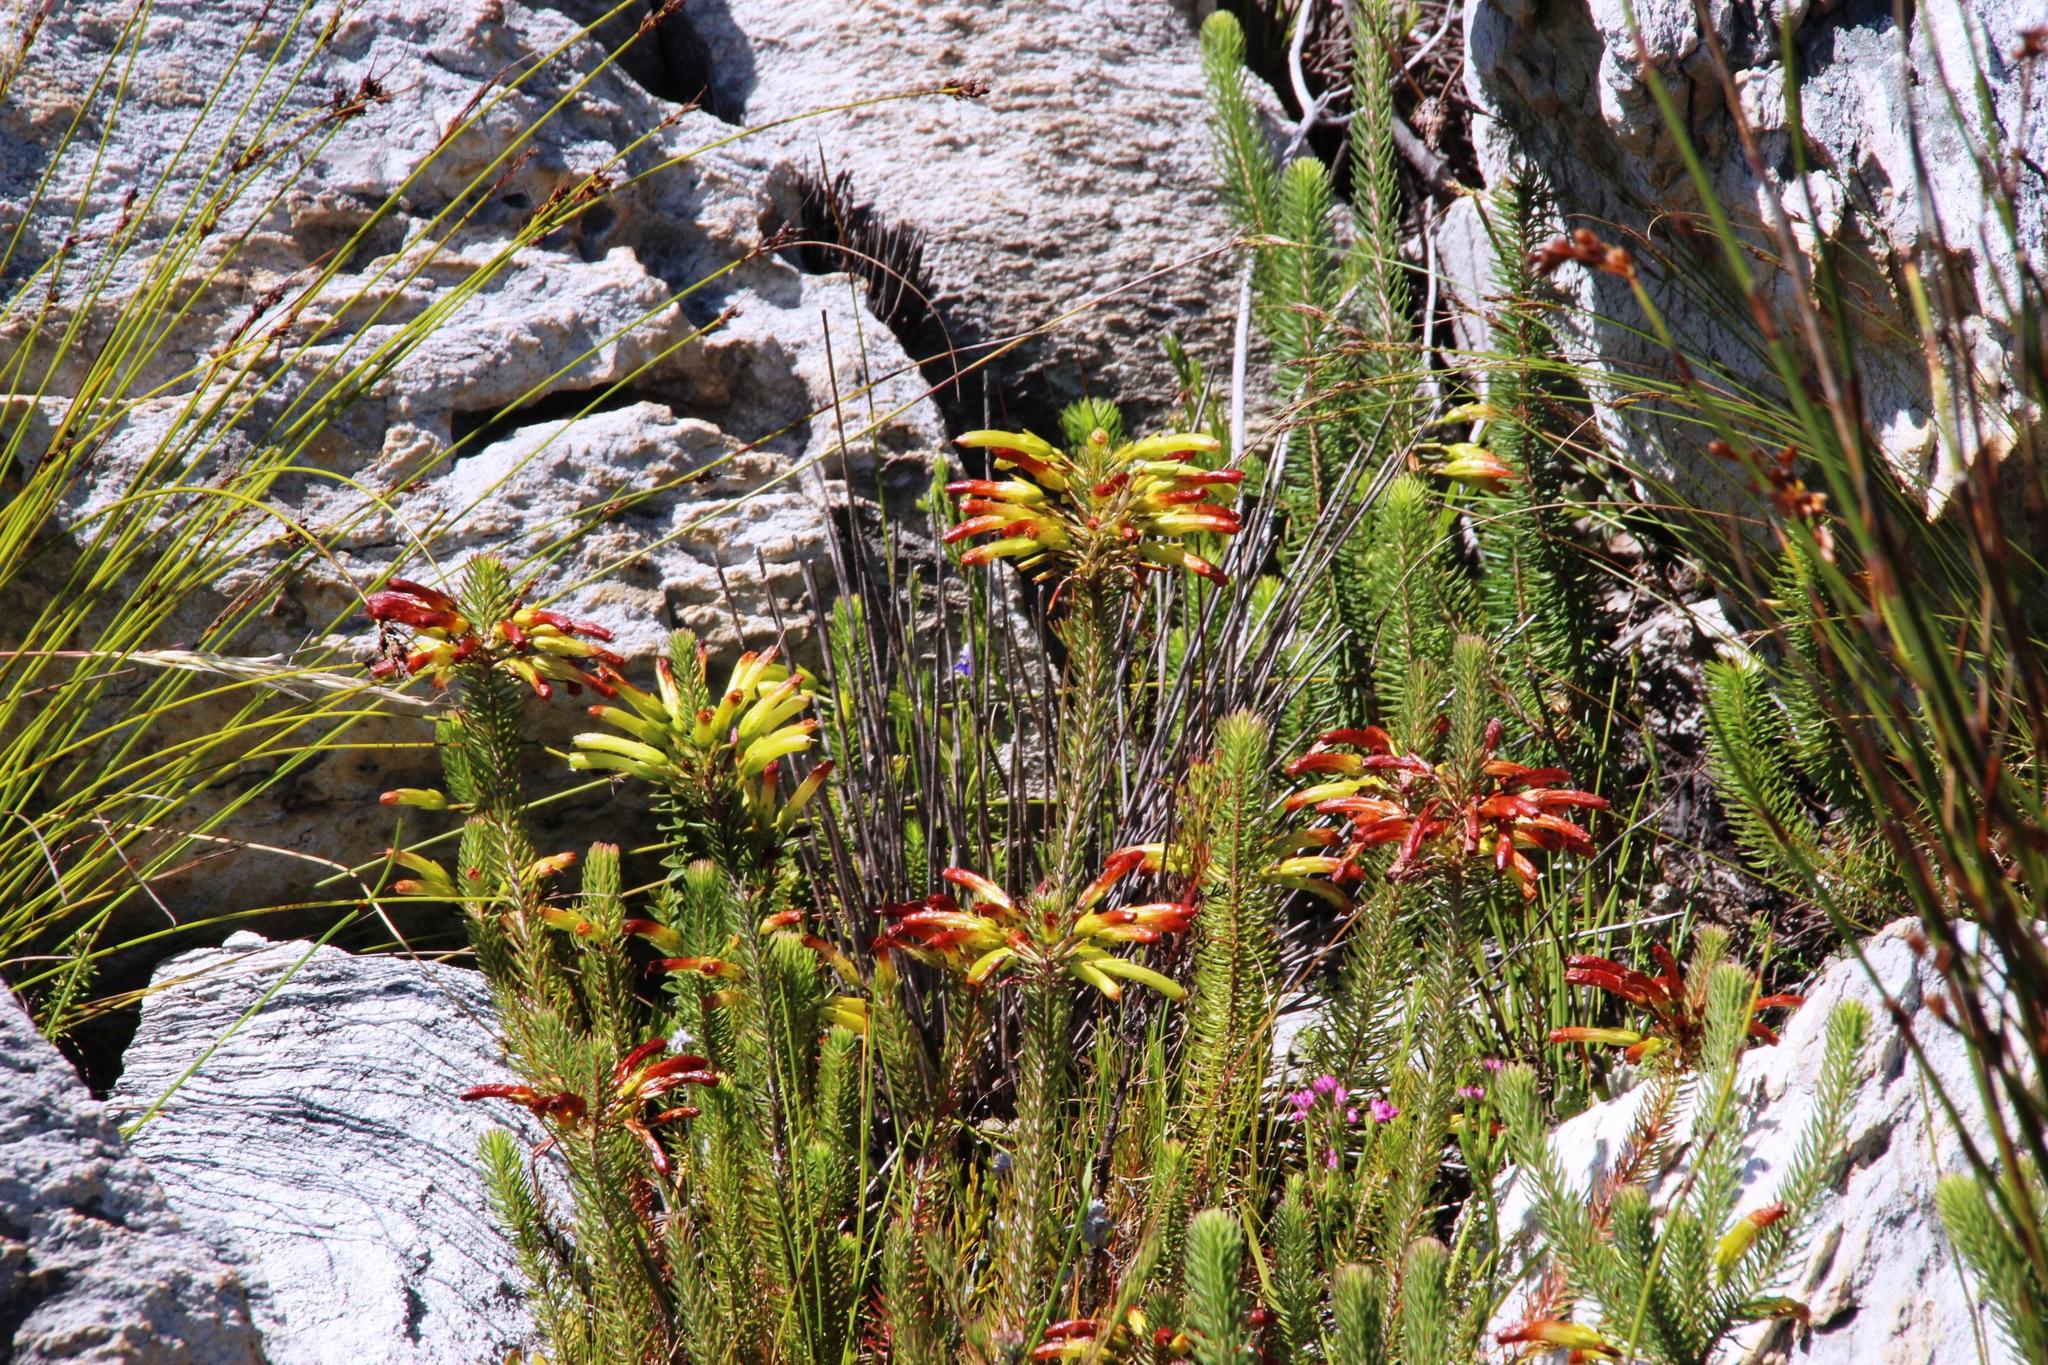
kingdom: Plantae
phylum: Tracheophyta
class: Magnoliopsida
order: Ericales
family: Ericaceae
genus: Erica
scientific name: Erica thomae
